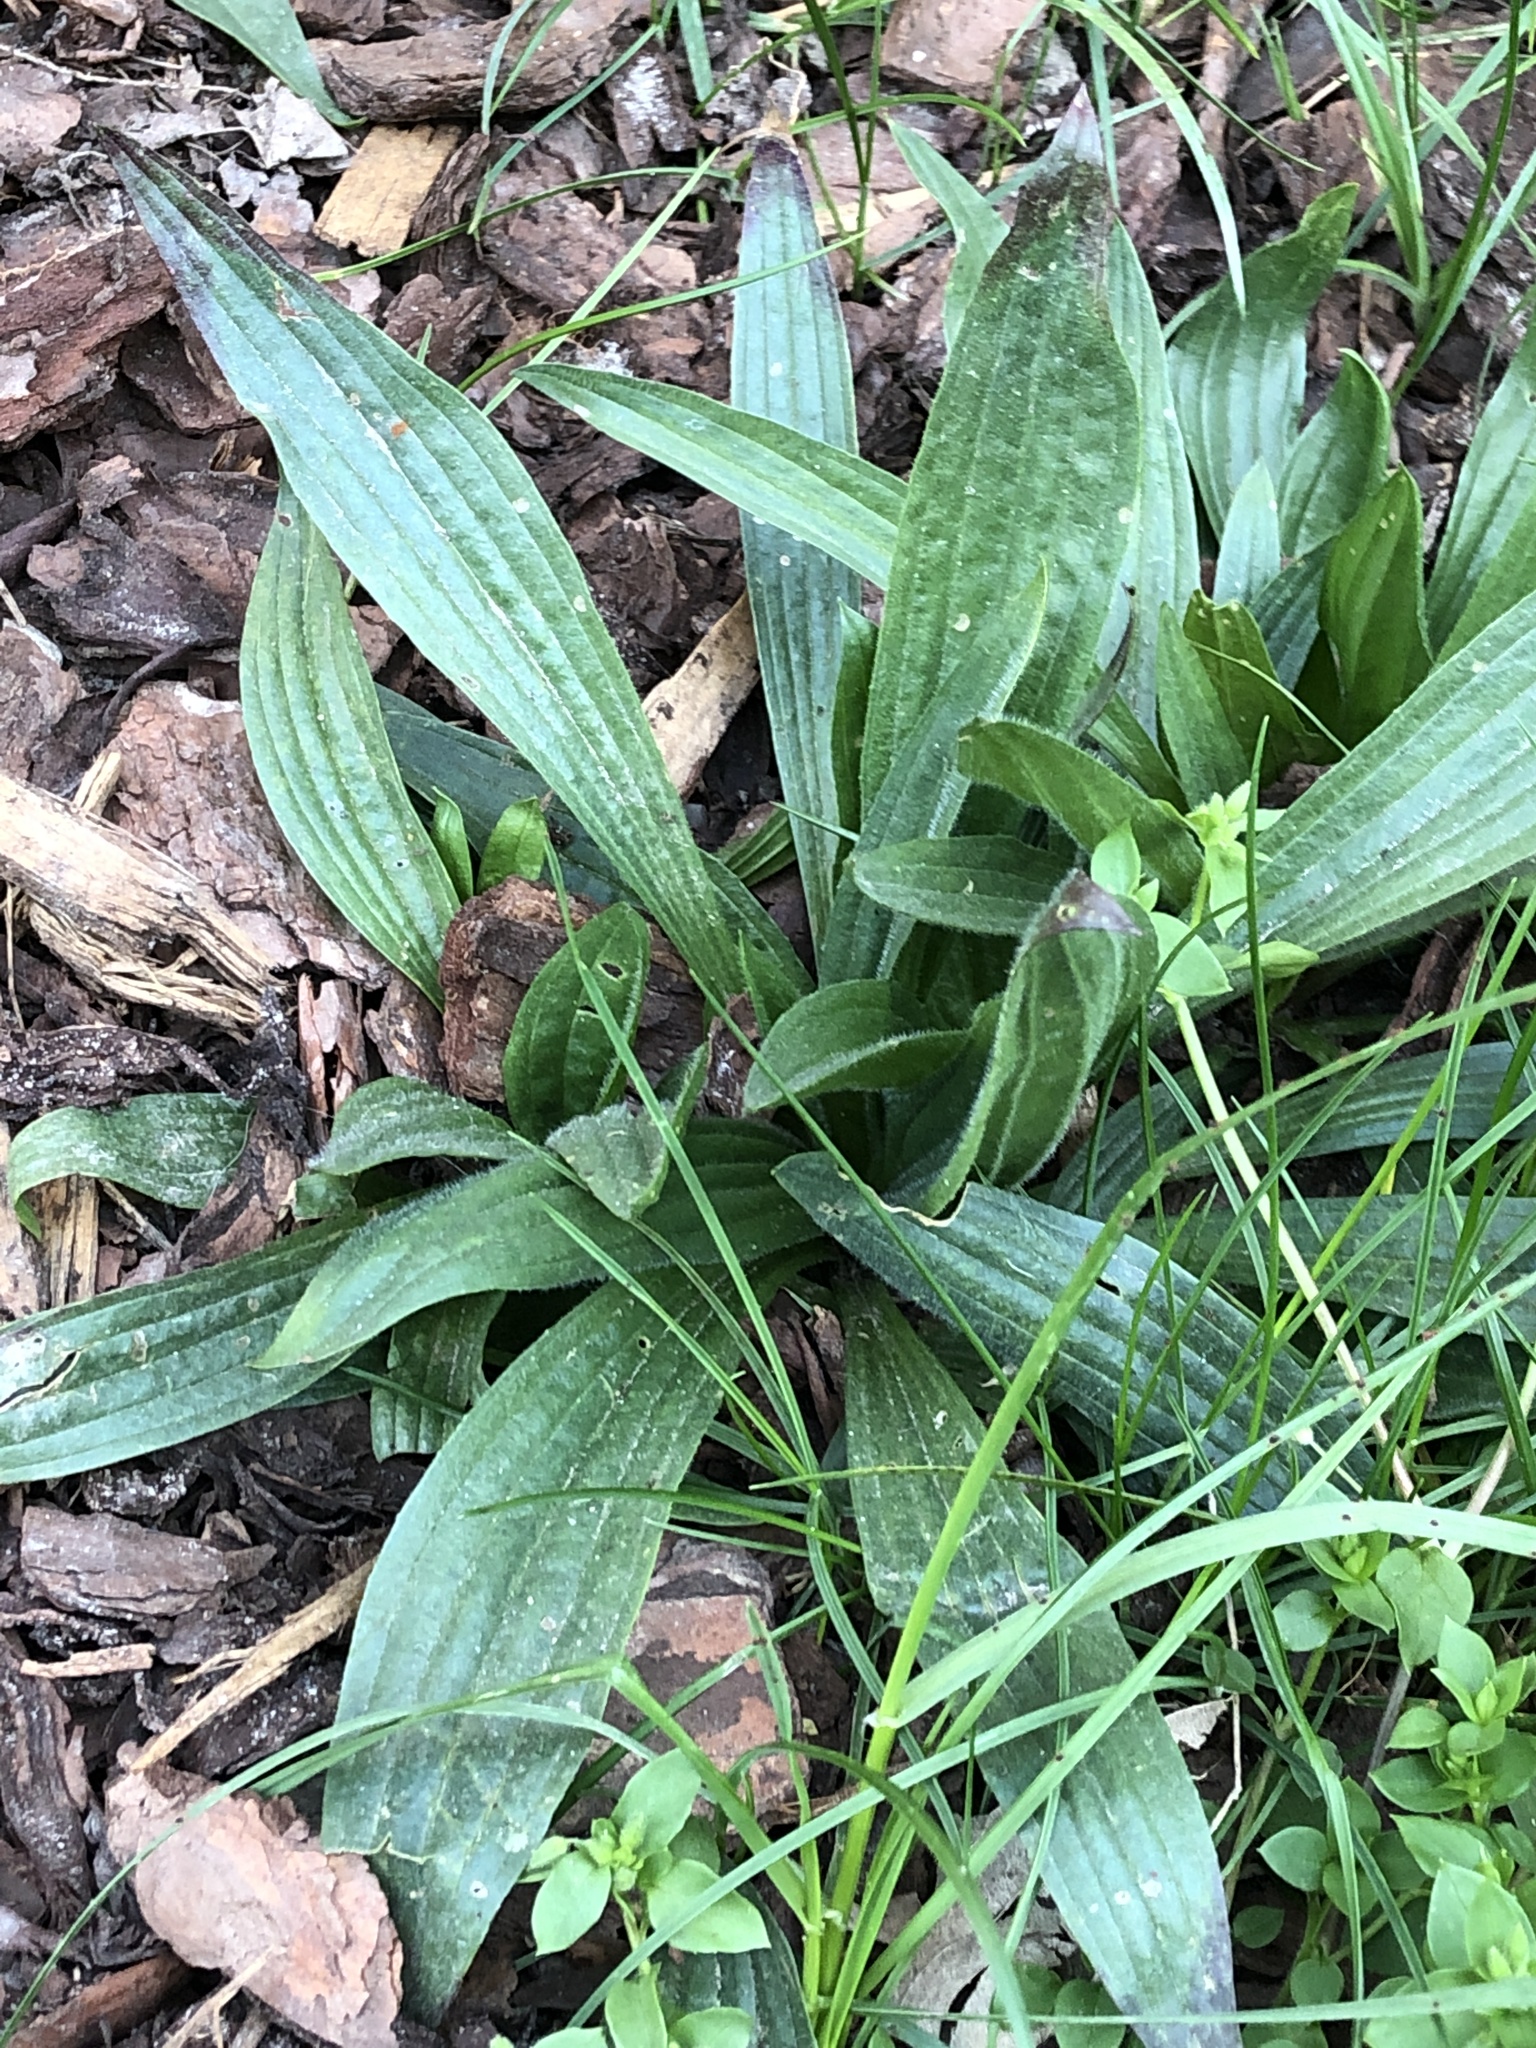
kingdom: Plantae
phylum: Tracheophyta
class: Magnoliopsida
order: Lamiales
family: Plantaginaceae
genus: Plantago
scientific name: Plantago lanceolata
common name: Ribwort plantain
